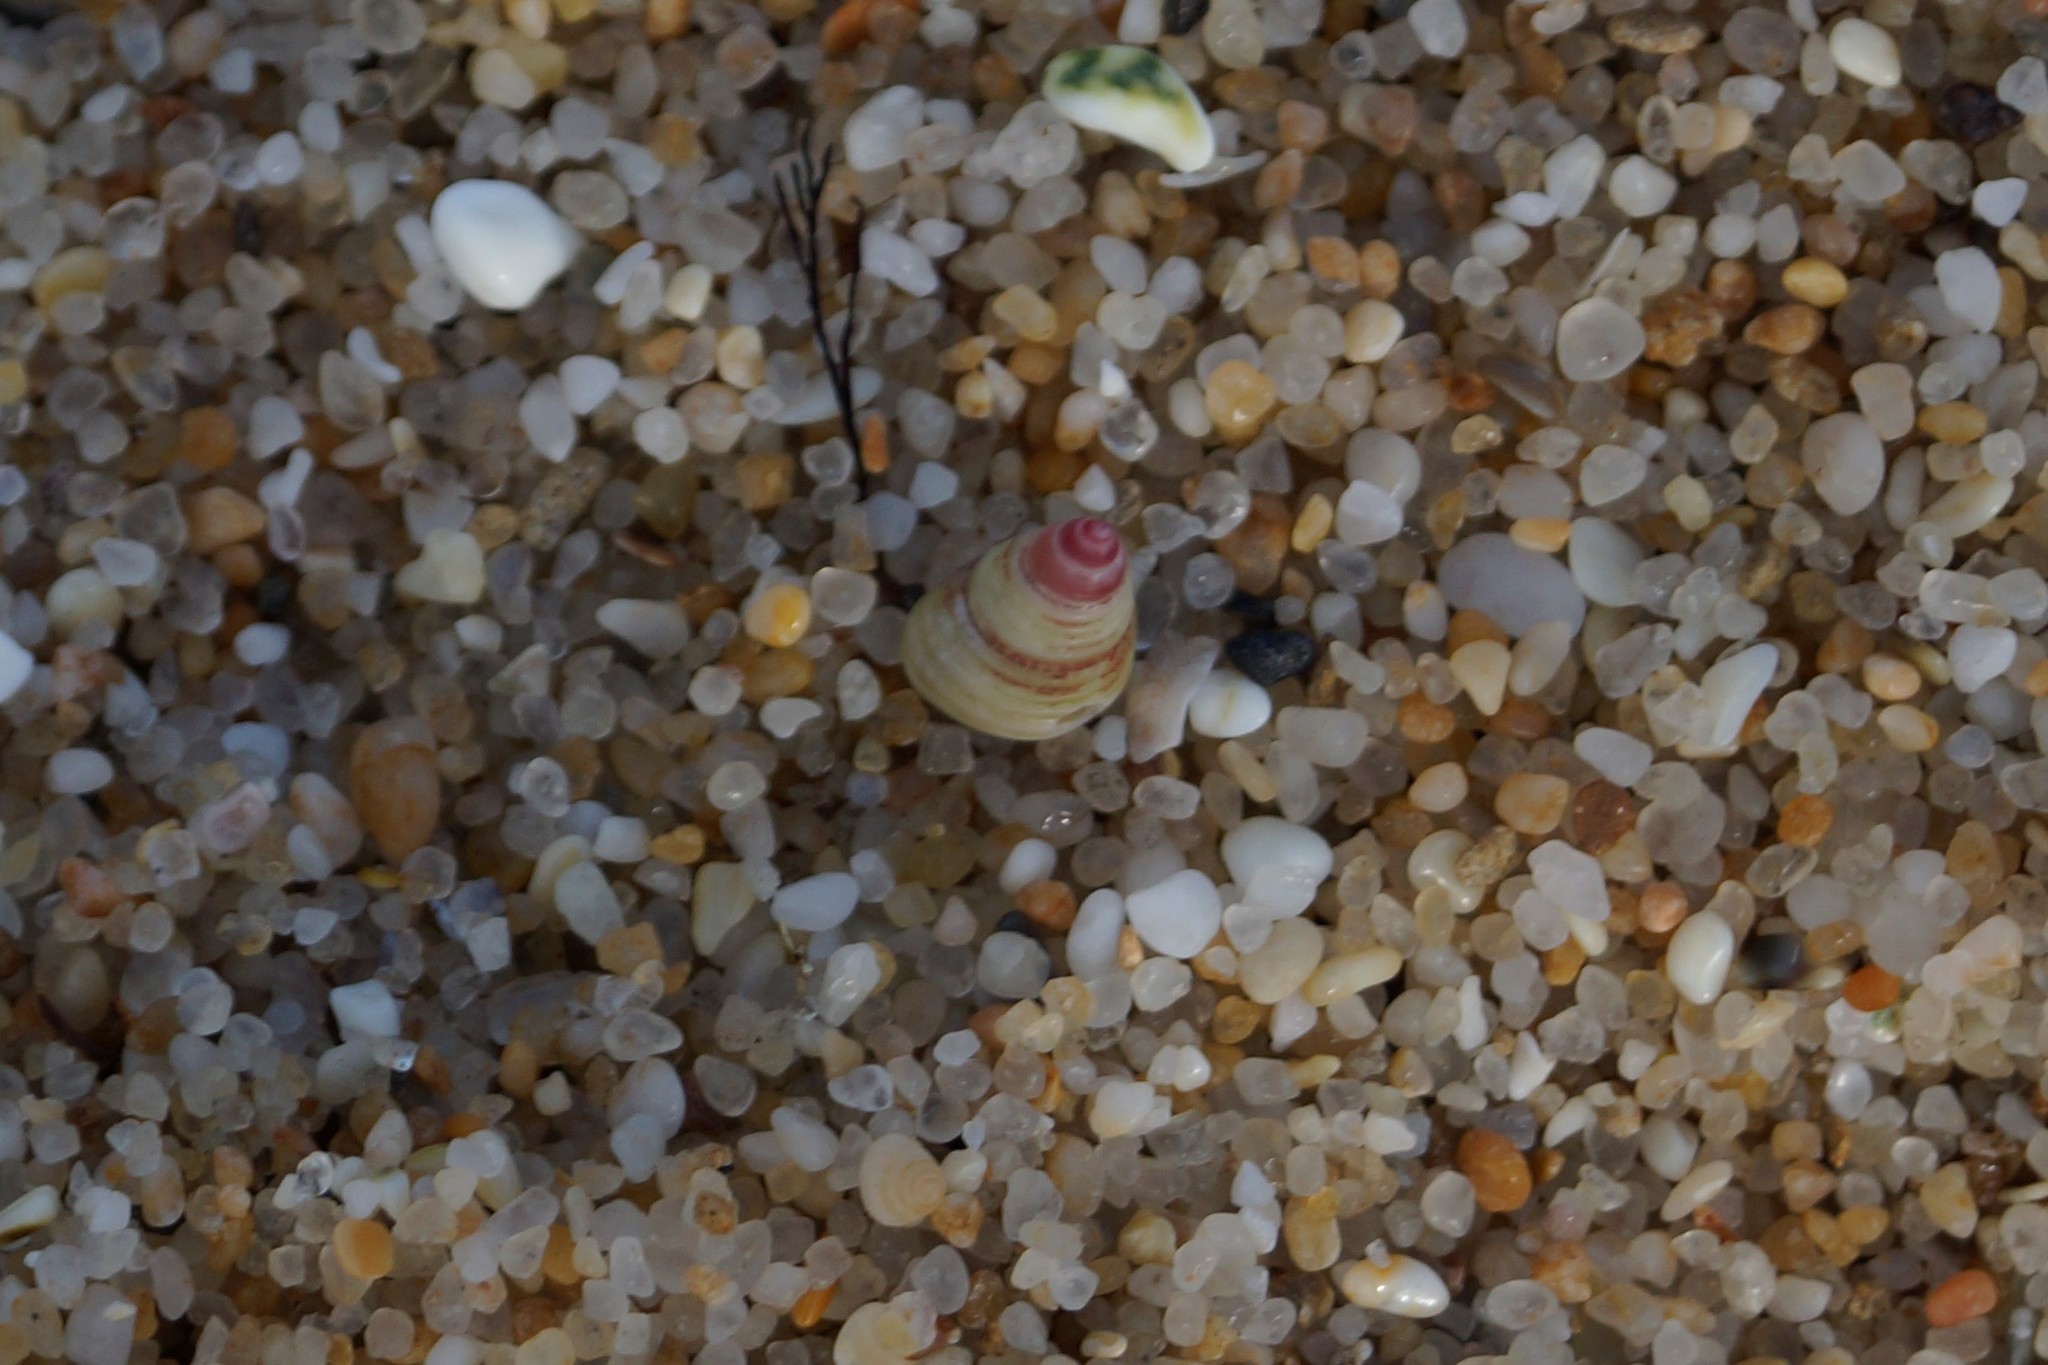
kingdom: Animalia
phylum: Mollusca
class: Gastropoda
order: Trochida
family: Trochidae
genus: Prothalotia
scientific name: Prothalotia pulcherrima
